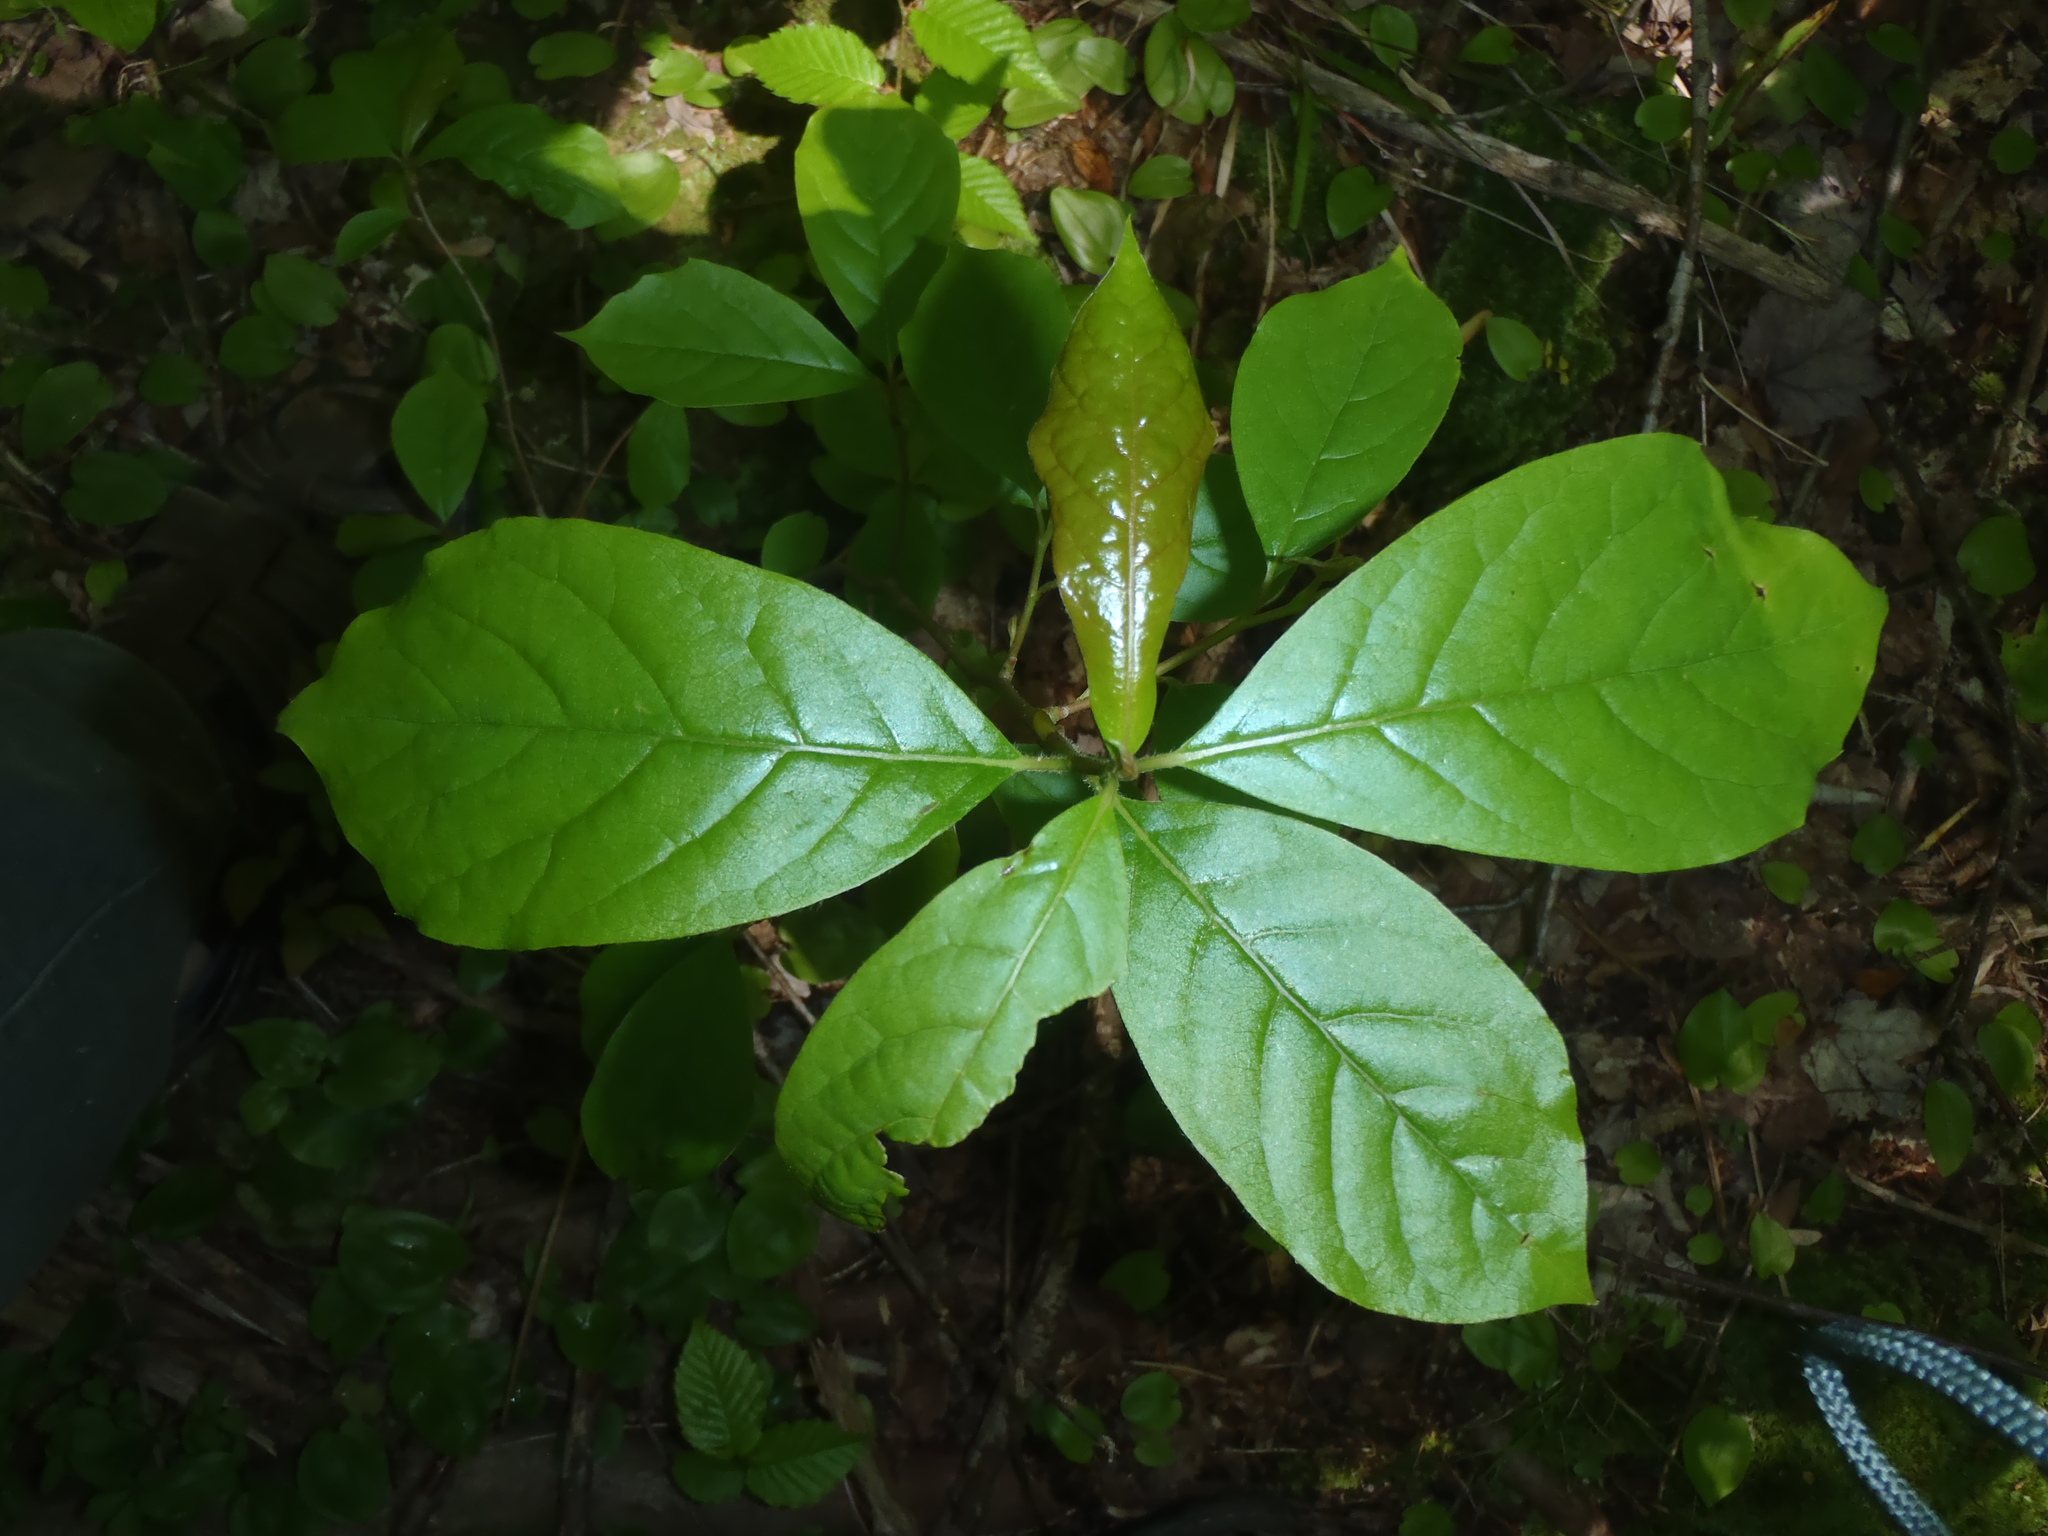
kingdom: Plantae
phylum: Tracheophyta
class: Magnoliopsida
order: Cornales
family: Nyssaceae
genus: Nyssa
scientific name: Nyssa sylvatica
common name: Black tupelo
